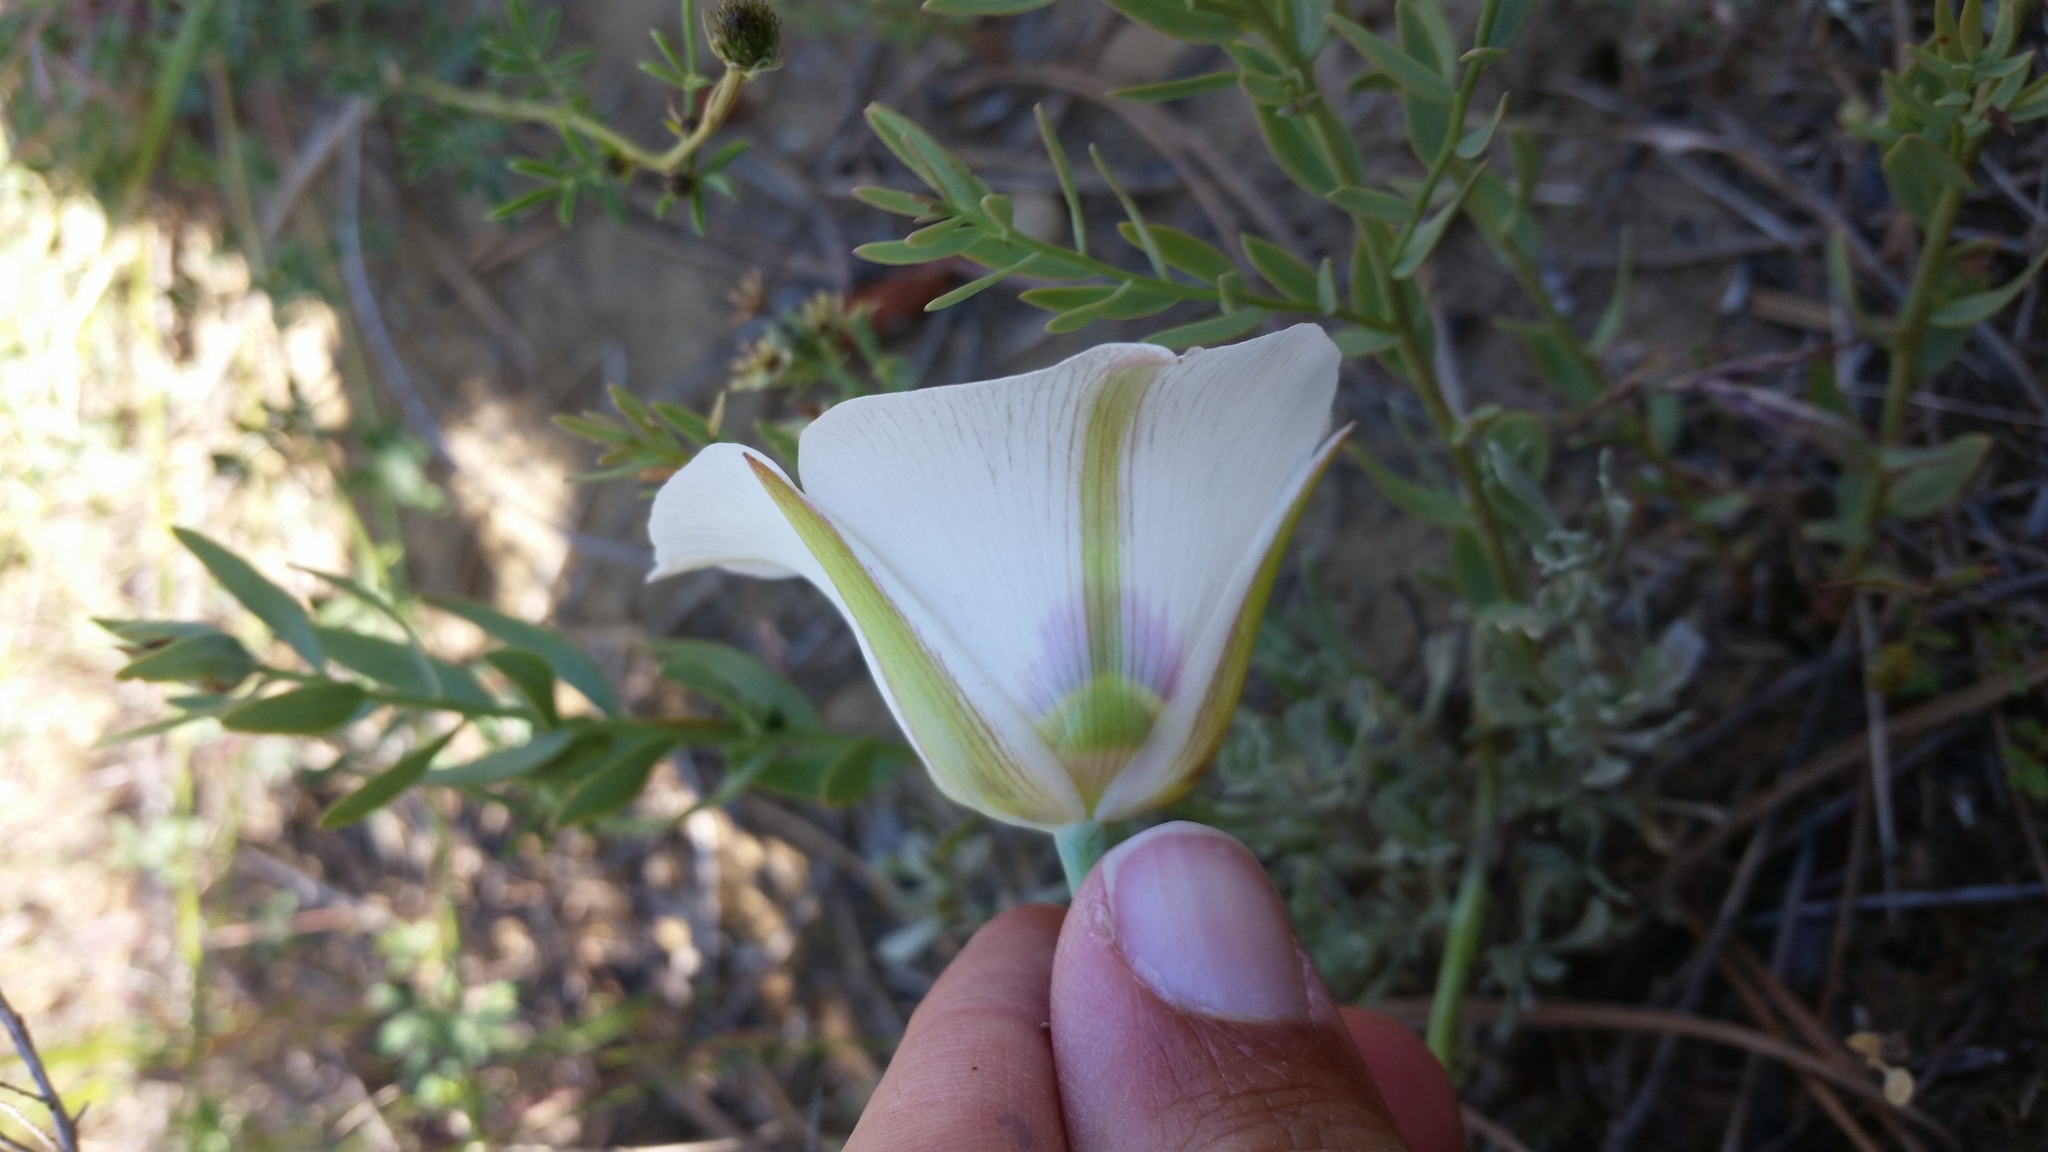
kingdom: Plantae
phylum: Tracheophyta
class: Liliopsida
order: Liliales
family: Liliaceae
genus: Calochortus
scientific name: Calochortus nuttallii
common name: Sego-lily
